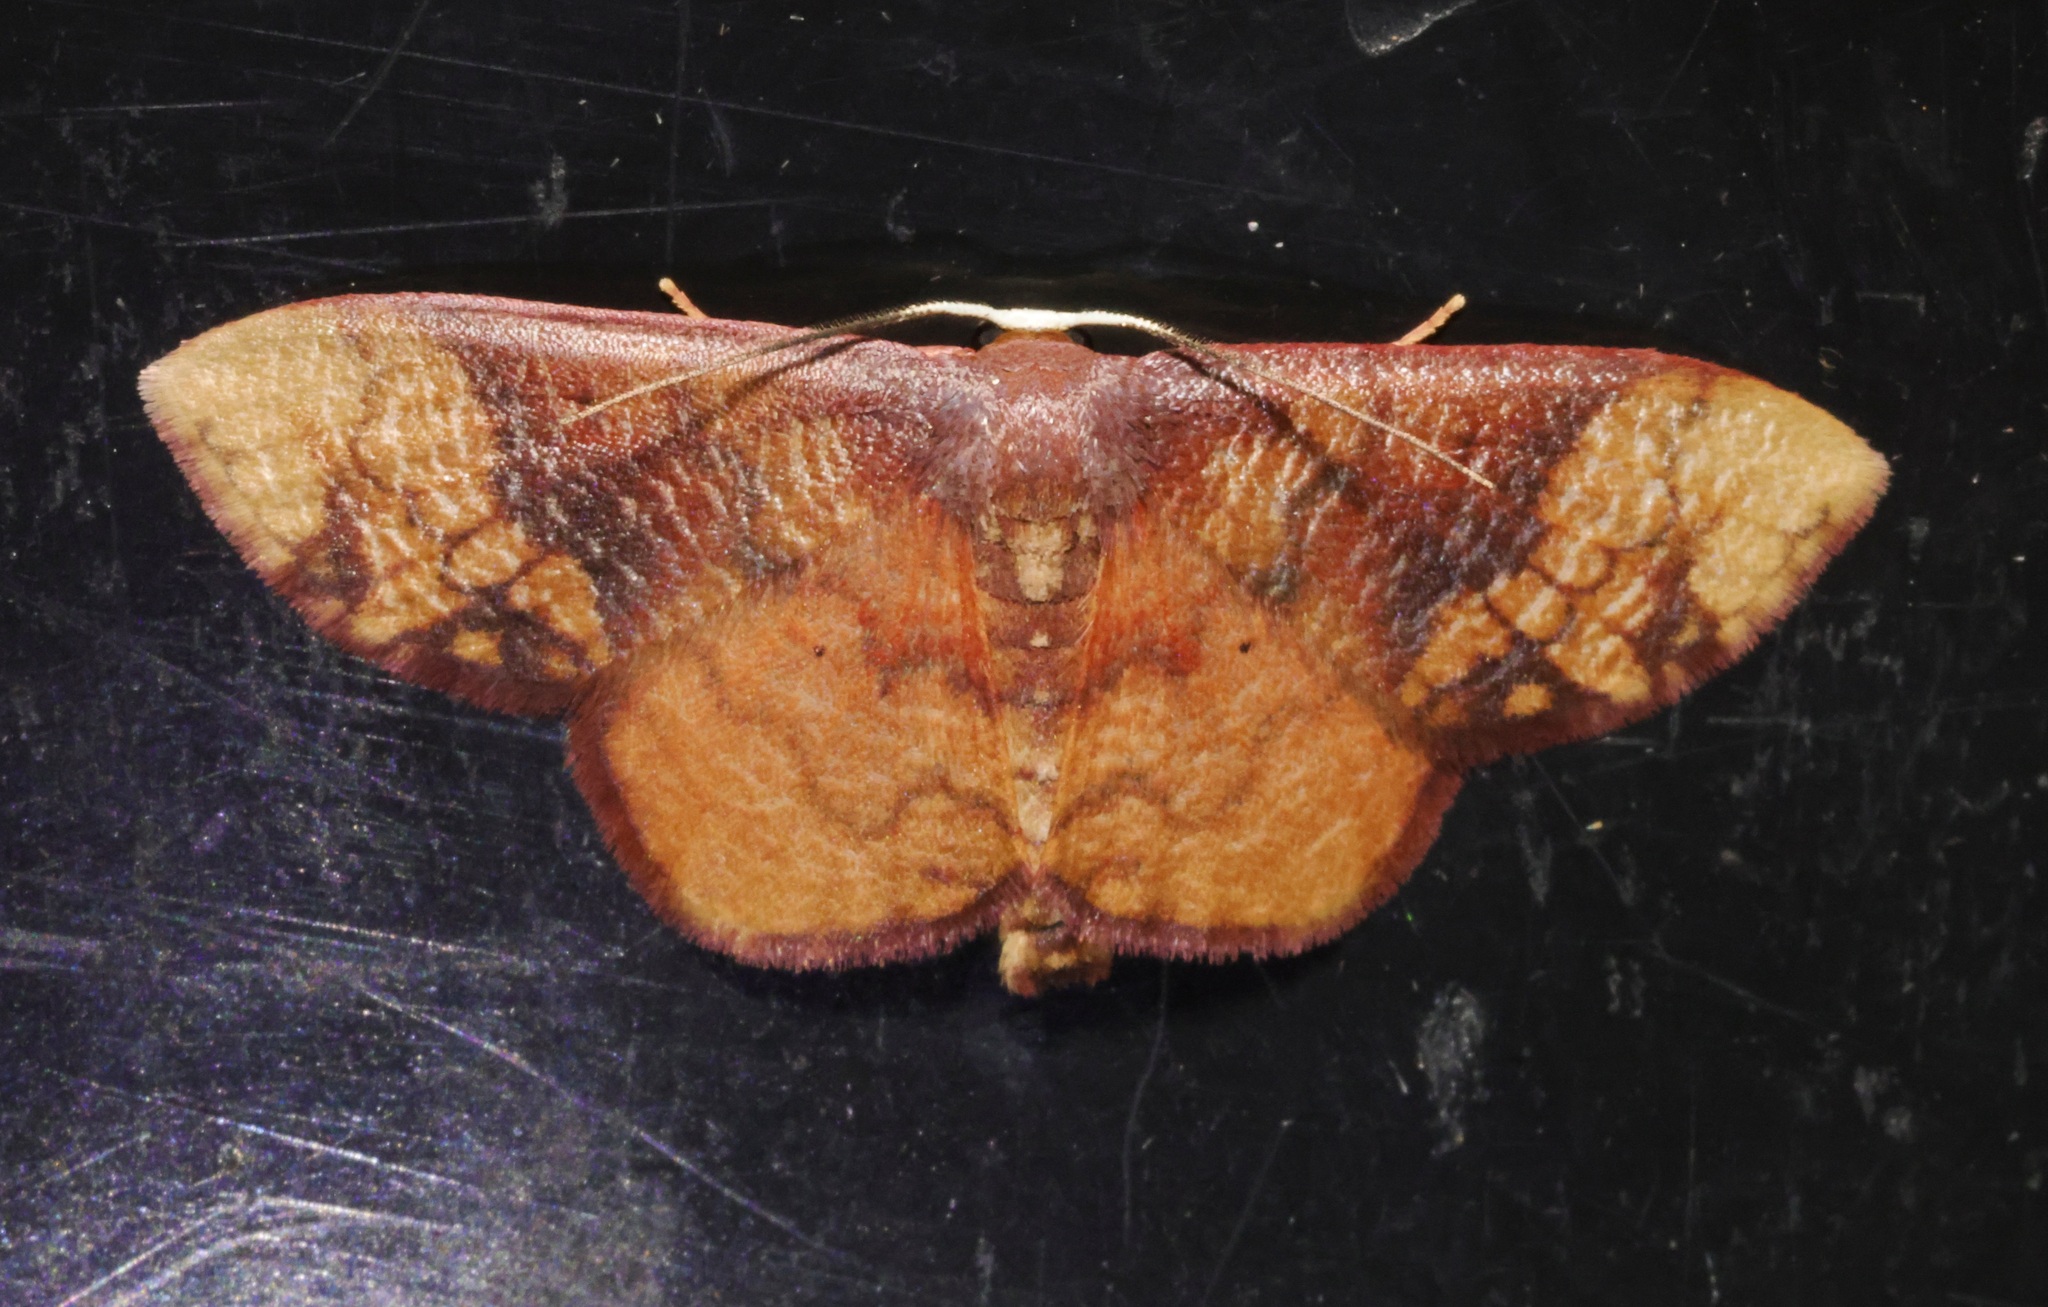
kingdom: Animalia
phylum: Arthropoda
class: Insecta
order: Lepidoptera
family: Geometridae
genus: Metallaxis
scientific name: Metallaxis
